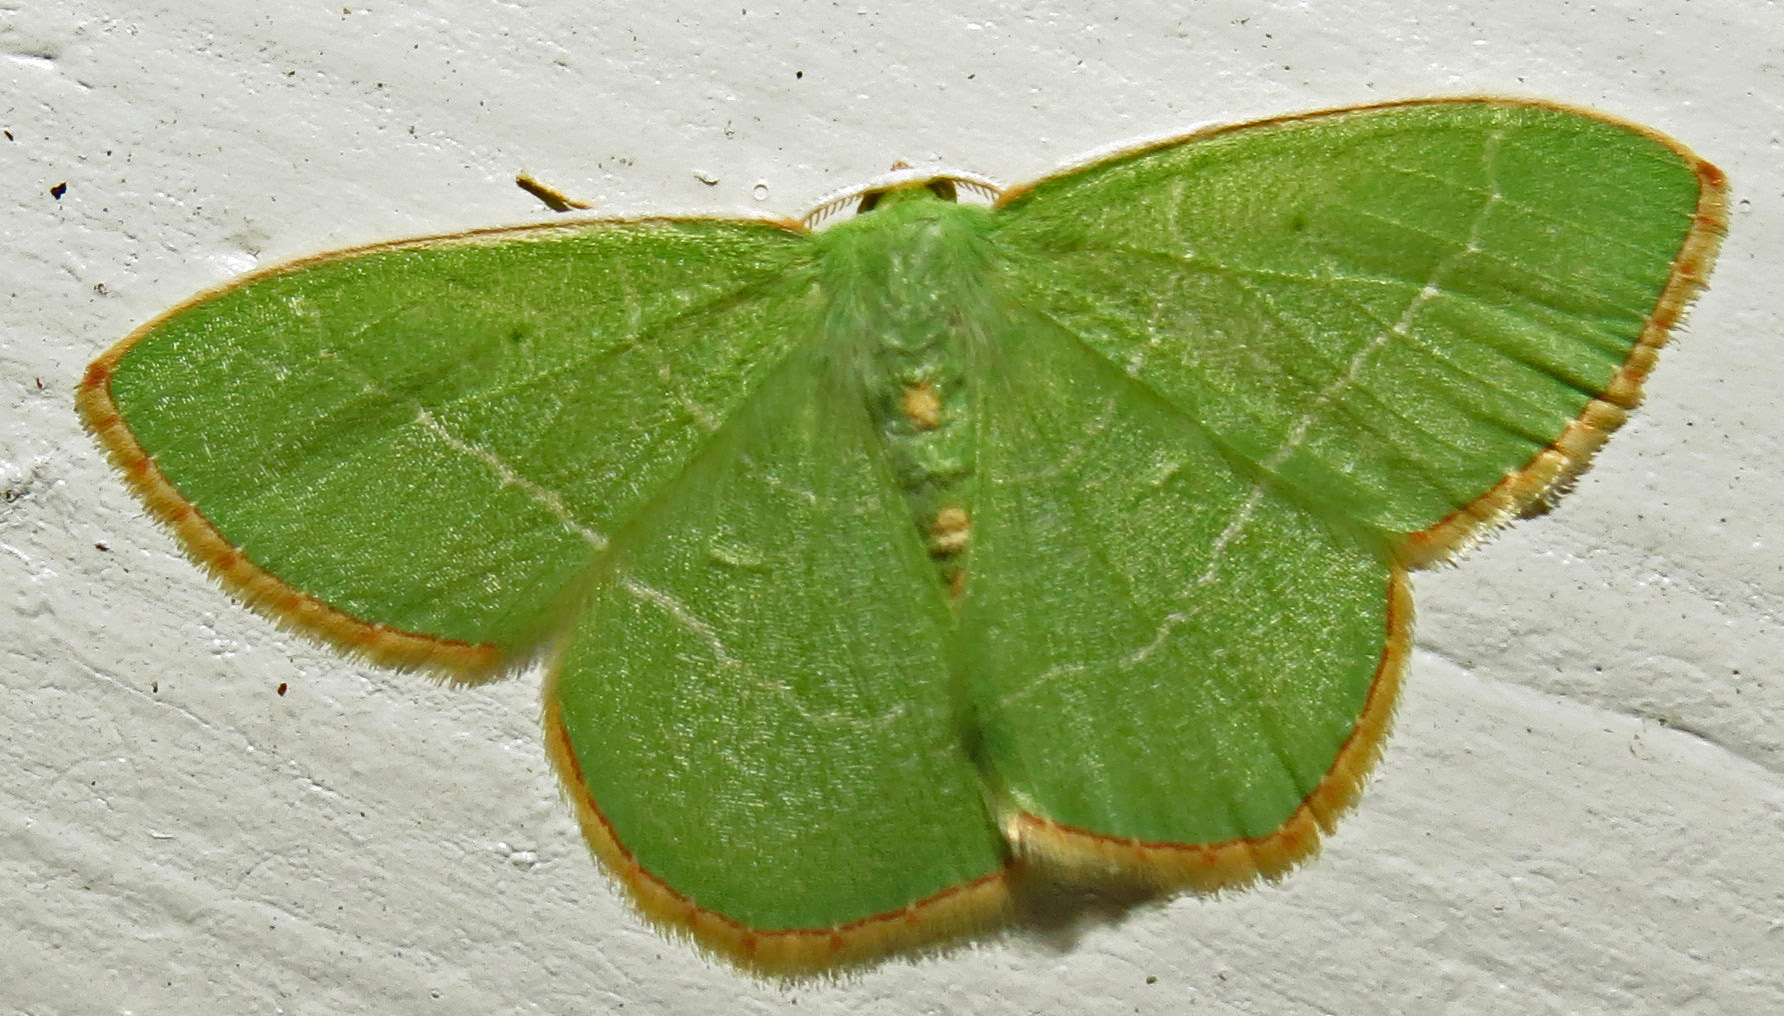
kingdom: Animalia
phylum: Arthropoda
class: Insecta
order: Lepidoptera
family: Geometridae
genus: Nemoria
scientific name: Nemoria bistriaria
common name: Red-fringed emerald
